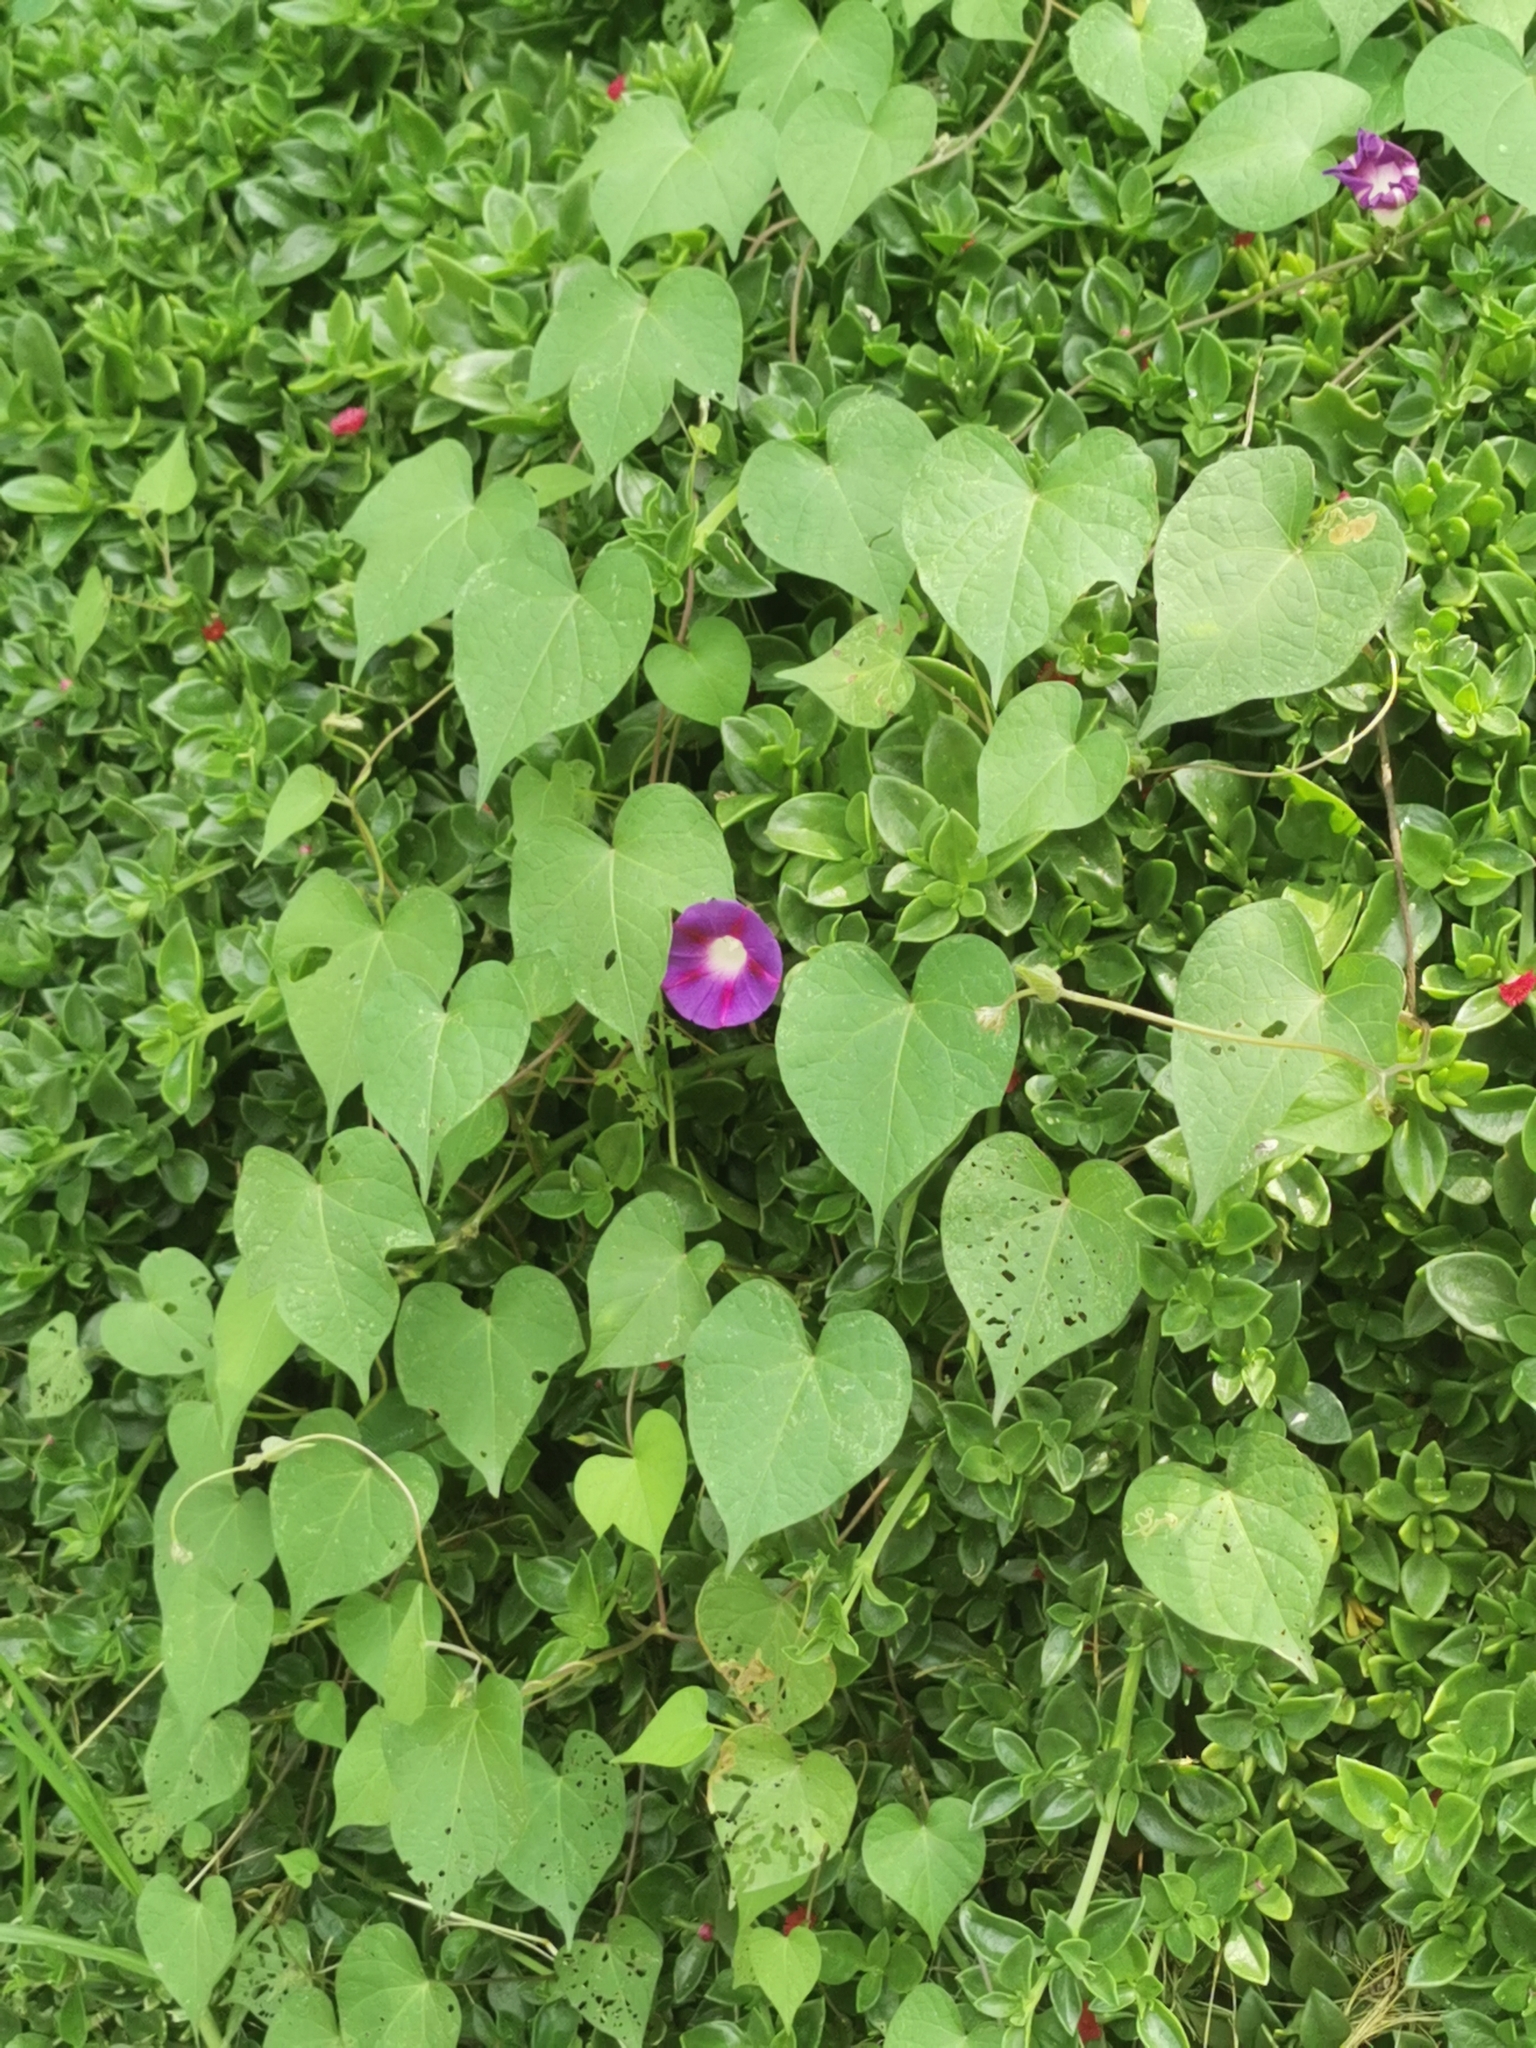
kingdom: Plantae
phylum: Tracheophyta
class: Magnoliopsida
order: Solanales
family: Convolvulaceae
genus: Ipomoea
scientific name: Ipomoea purpurea
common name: Common morning-glory
